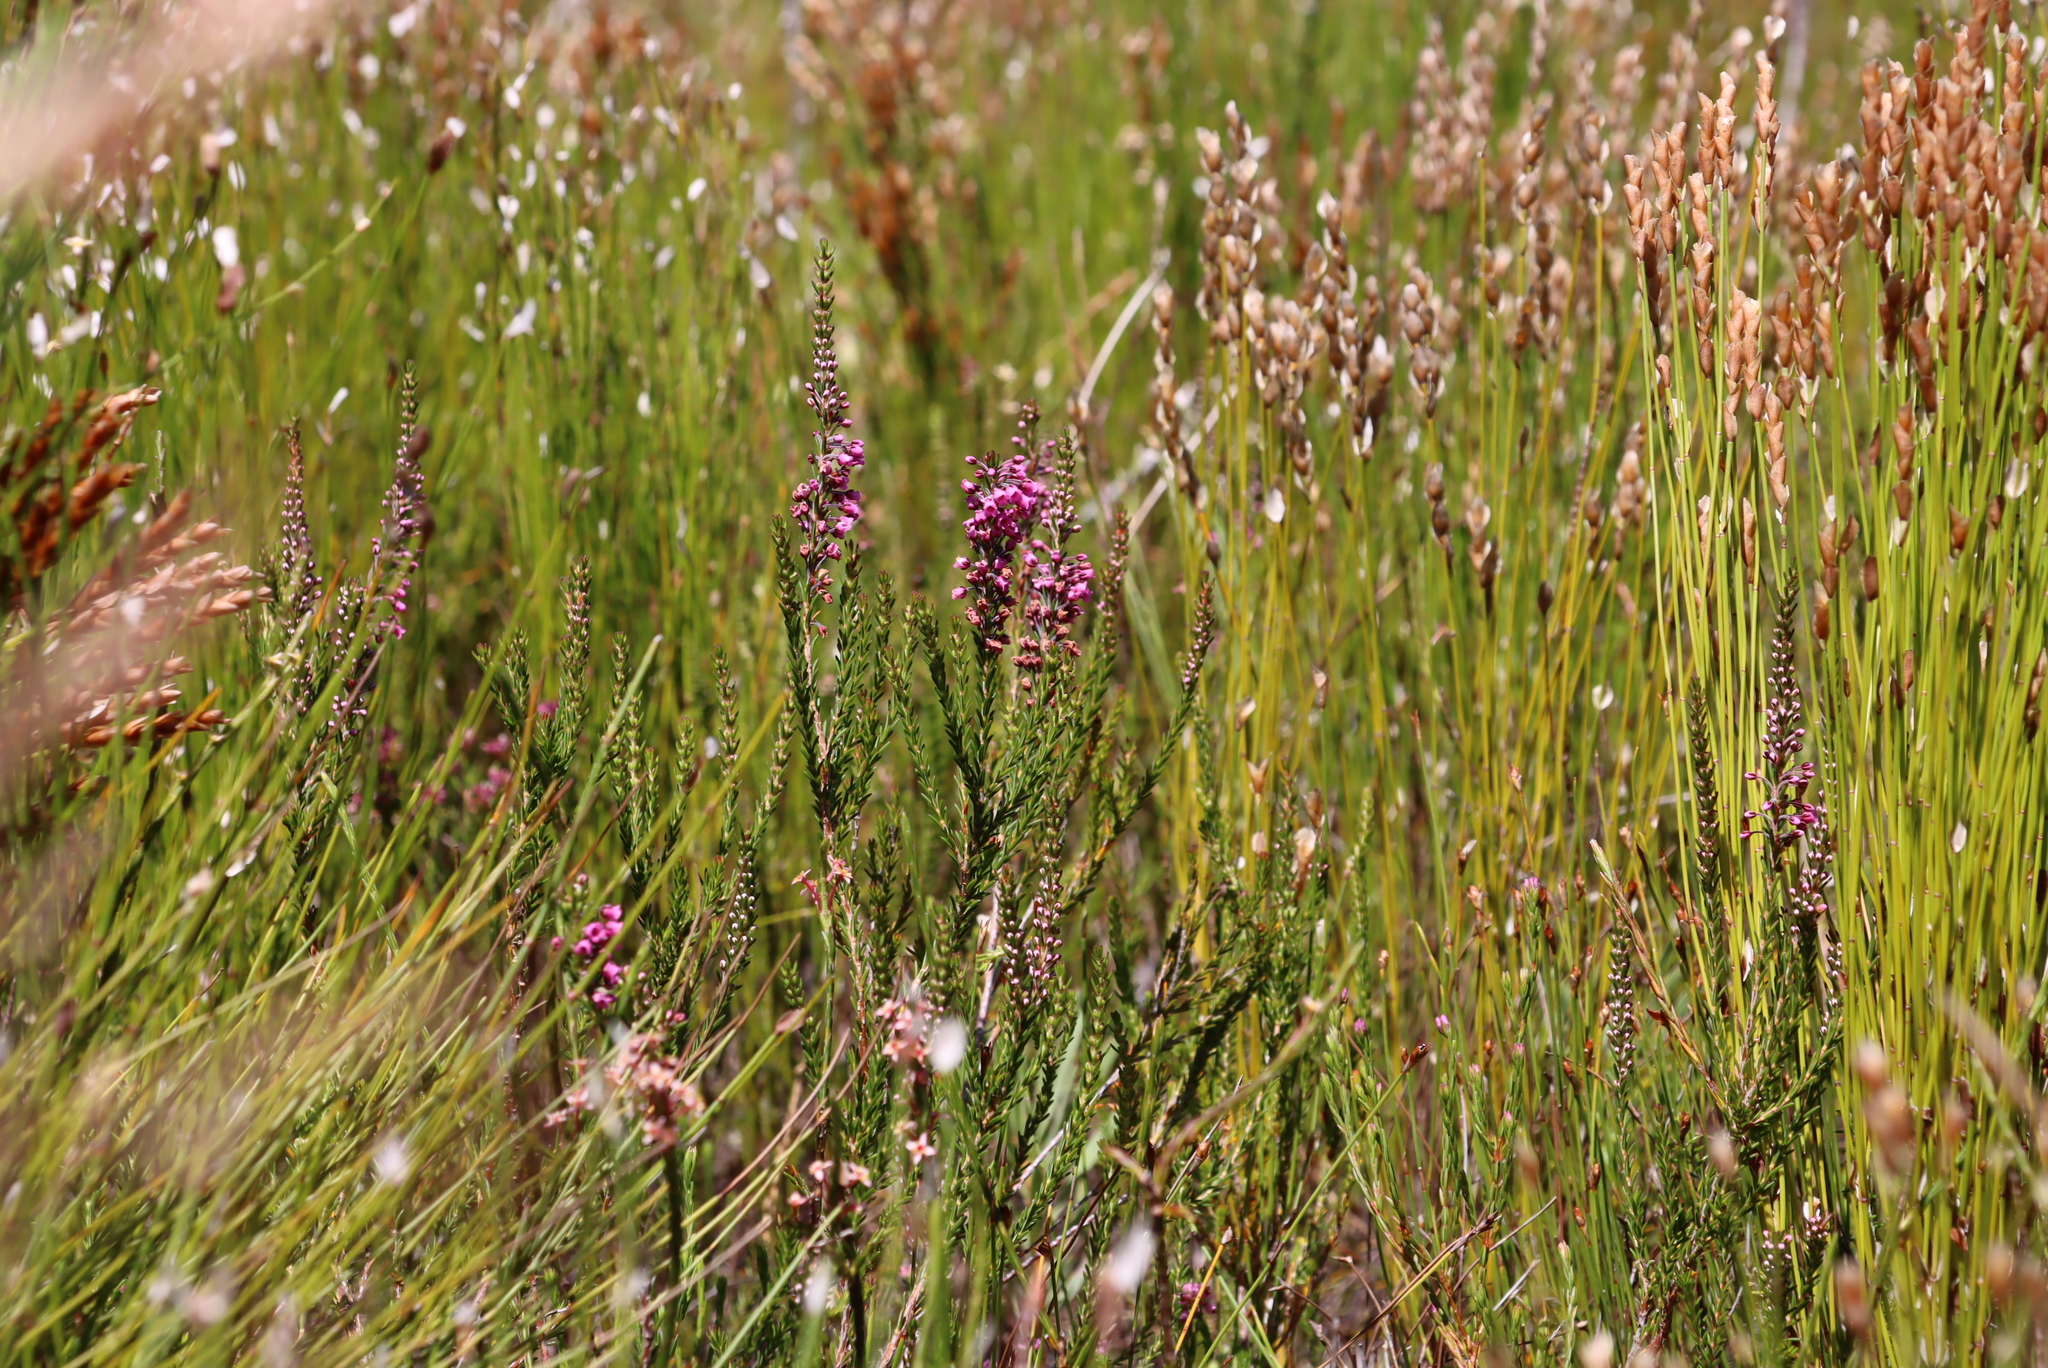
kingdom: Plantae
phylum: Tracheophyta
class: Magnoliopsida
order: Ericales
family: Ericaceae
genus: Erica
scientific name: Erica pulchella
